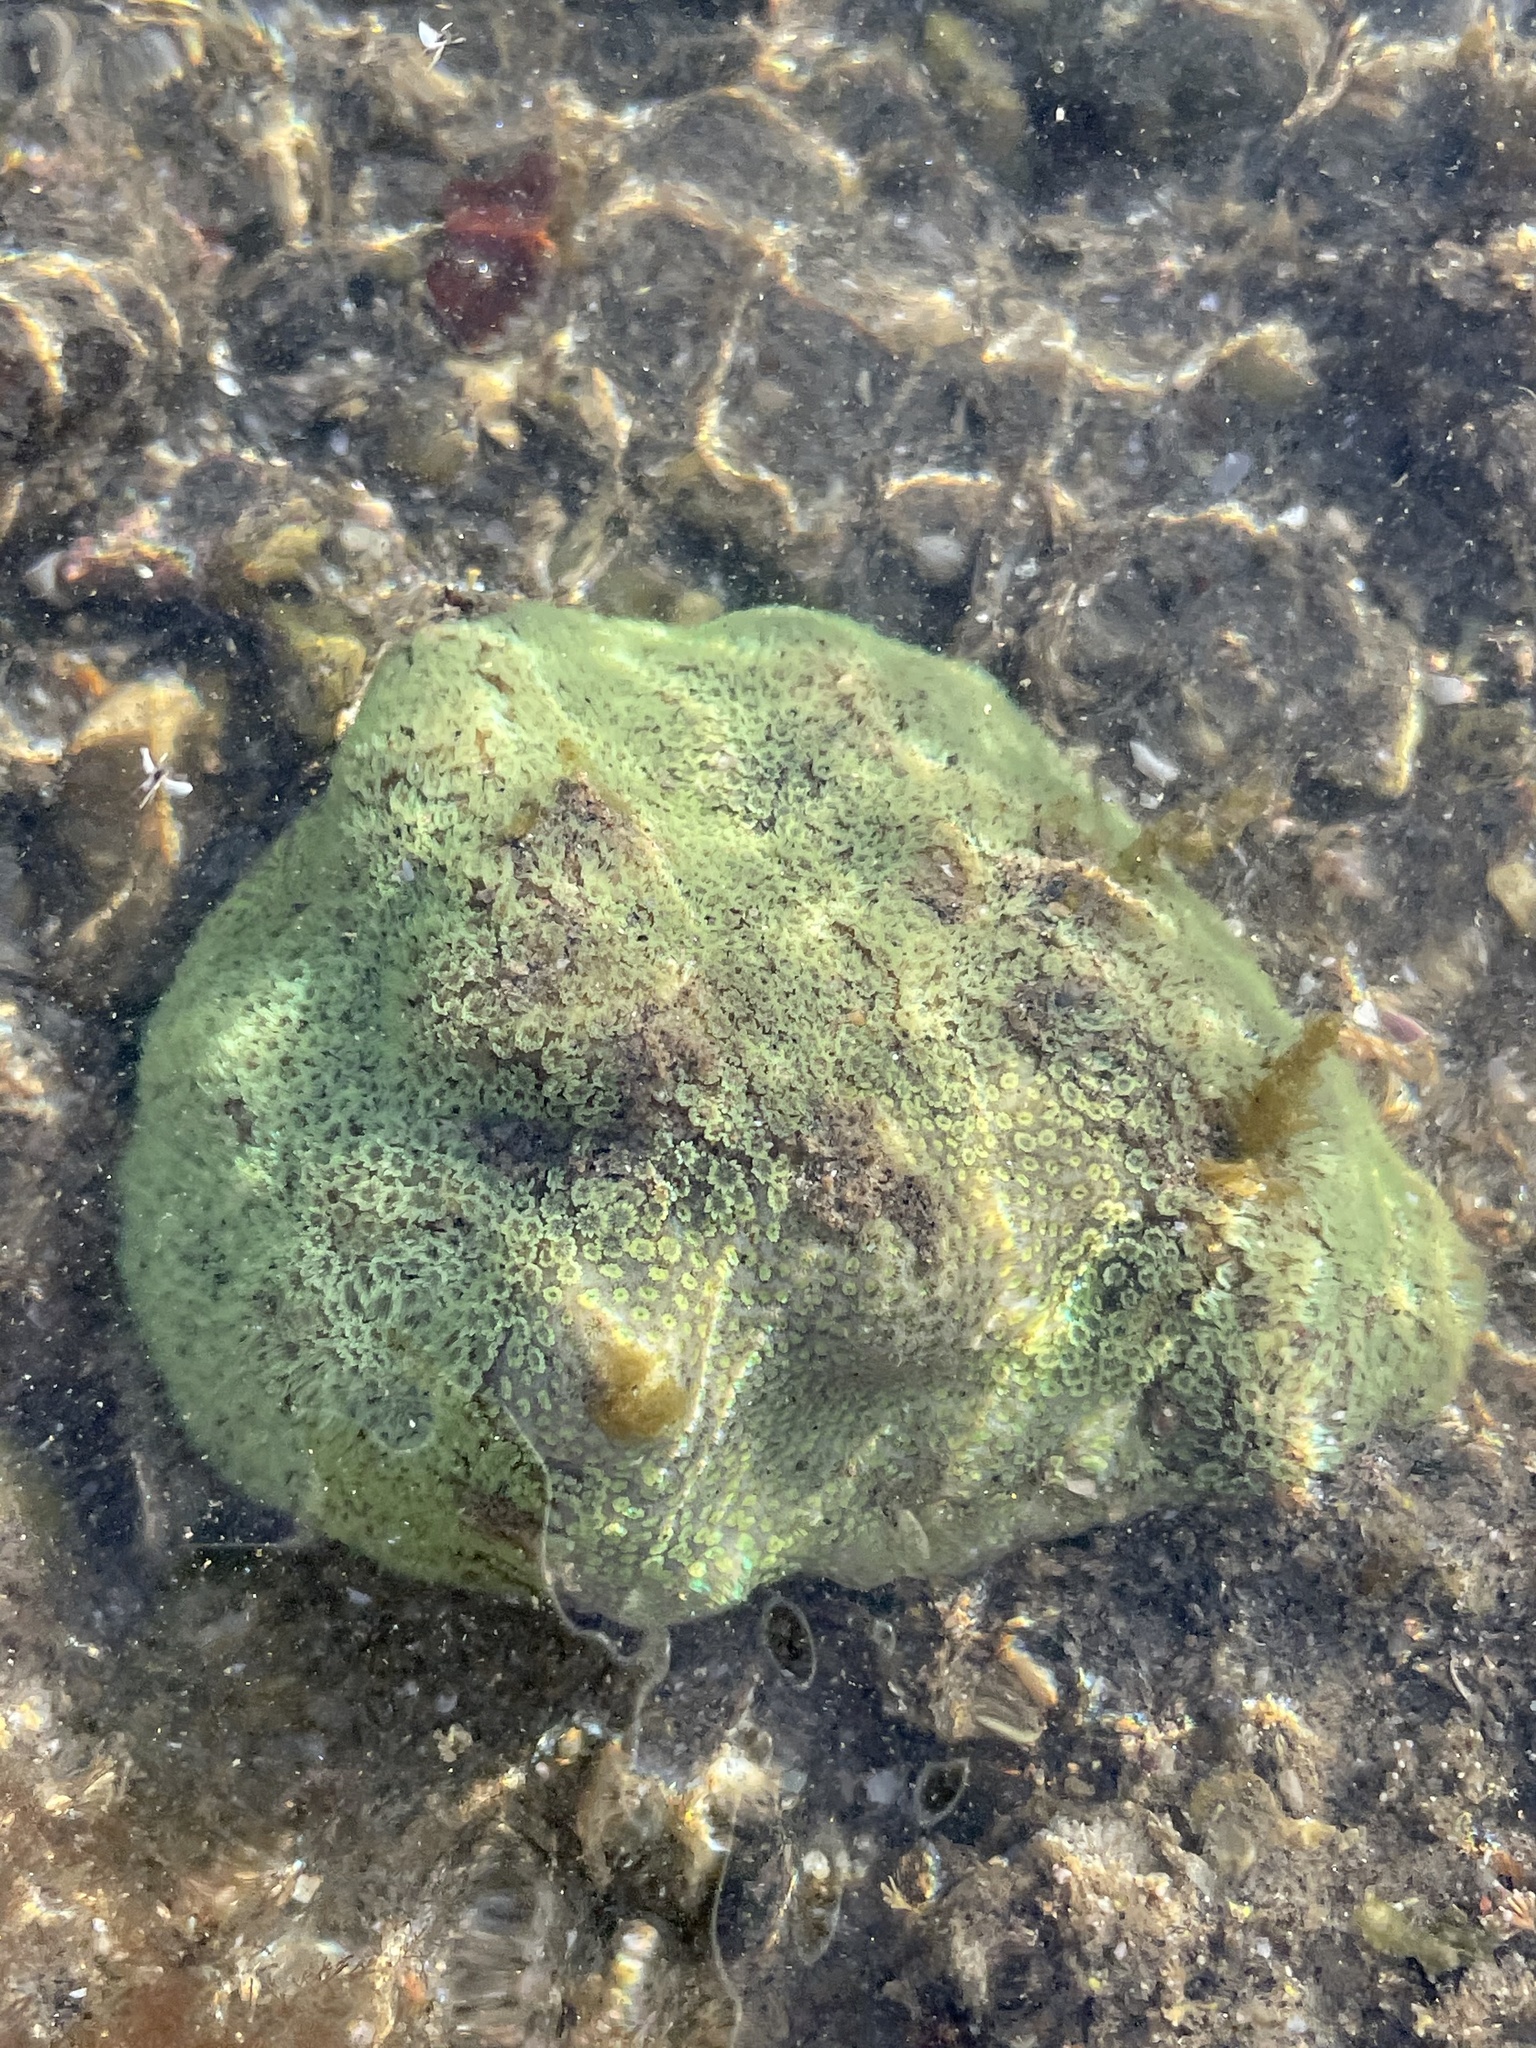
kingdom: Animalia
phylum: Cnidaria
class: Anthozoa
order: Scleractinia
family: Poritidae
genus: Porites
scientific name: Porites panamensis
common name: Hump coral
